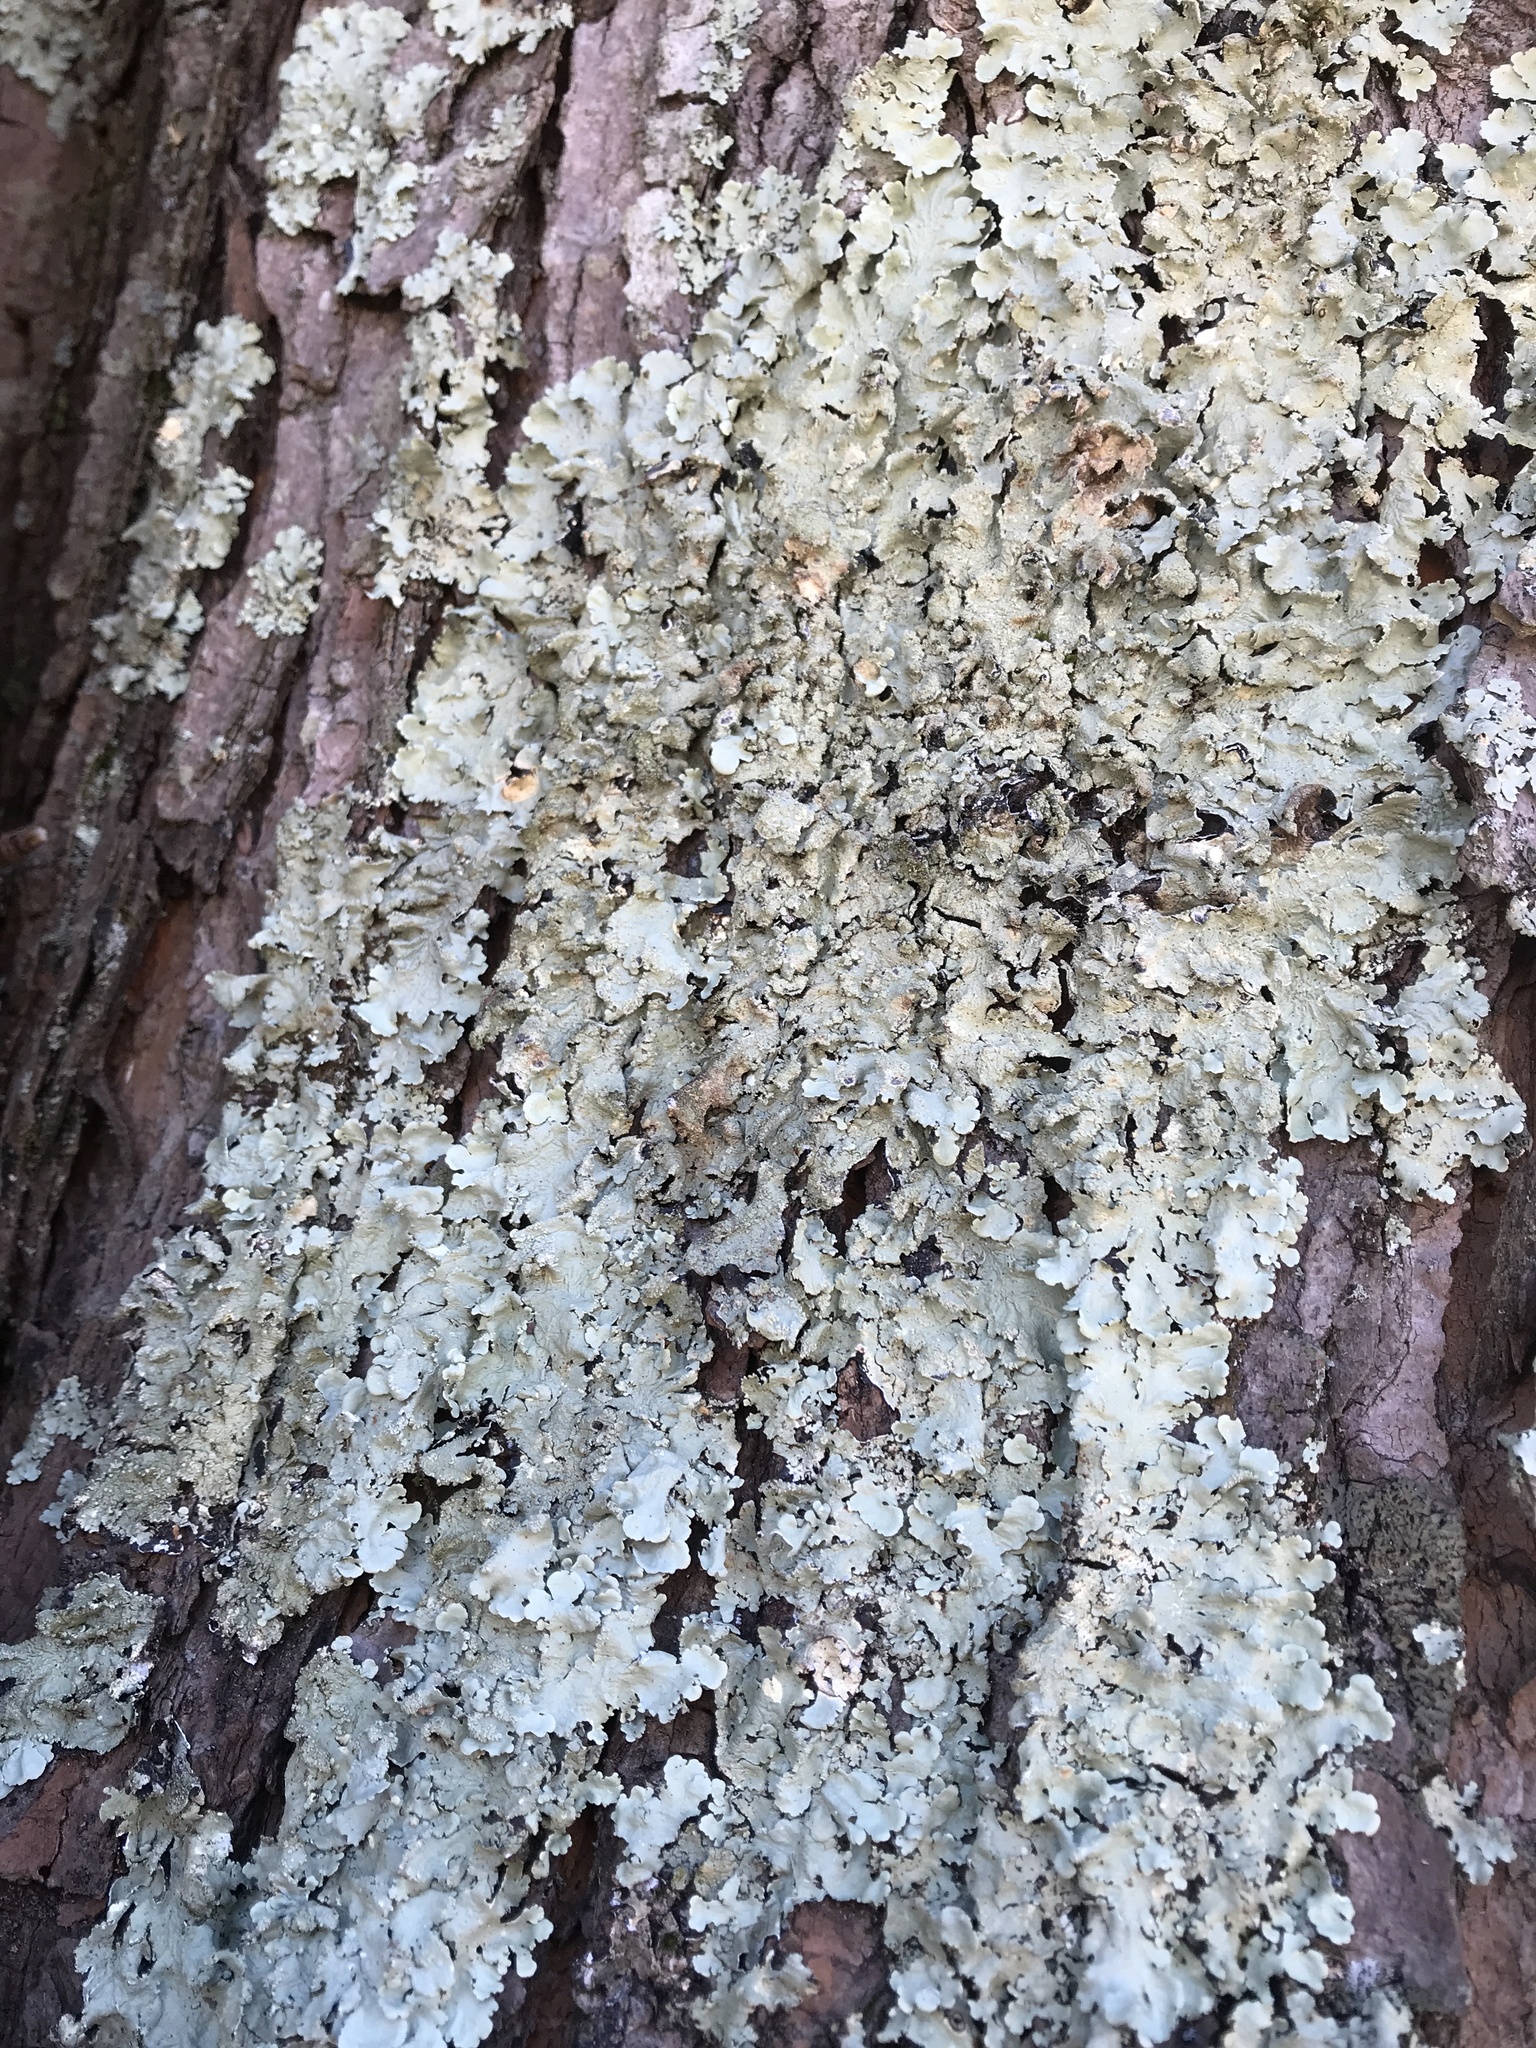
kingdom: Fungi
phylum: Ascomycota
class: Lecanoromycetes
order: Lecanorales
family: Parmeliaceae
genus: Flavoparmelia
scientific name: Flavoparmelia caperata
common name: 40-mile per hour lichen
